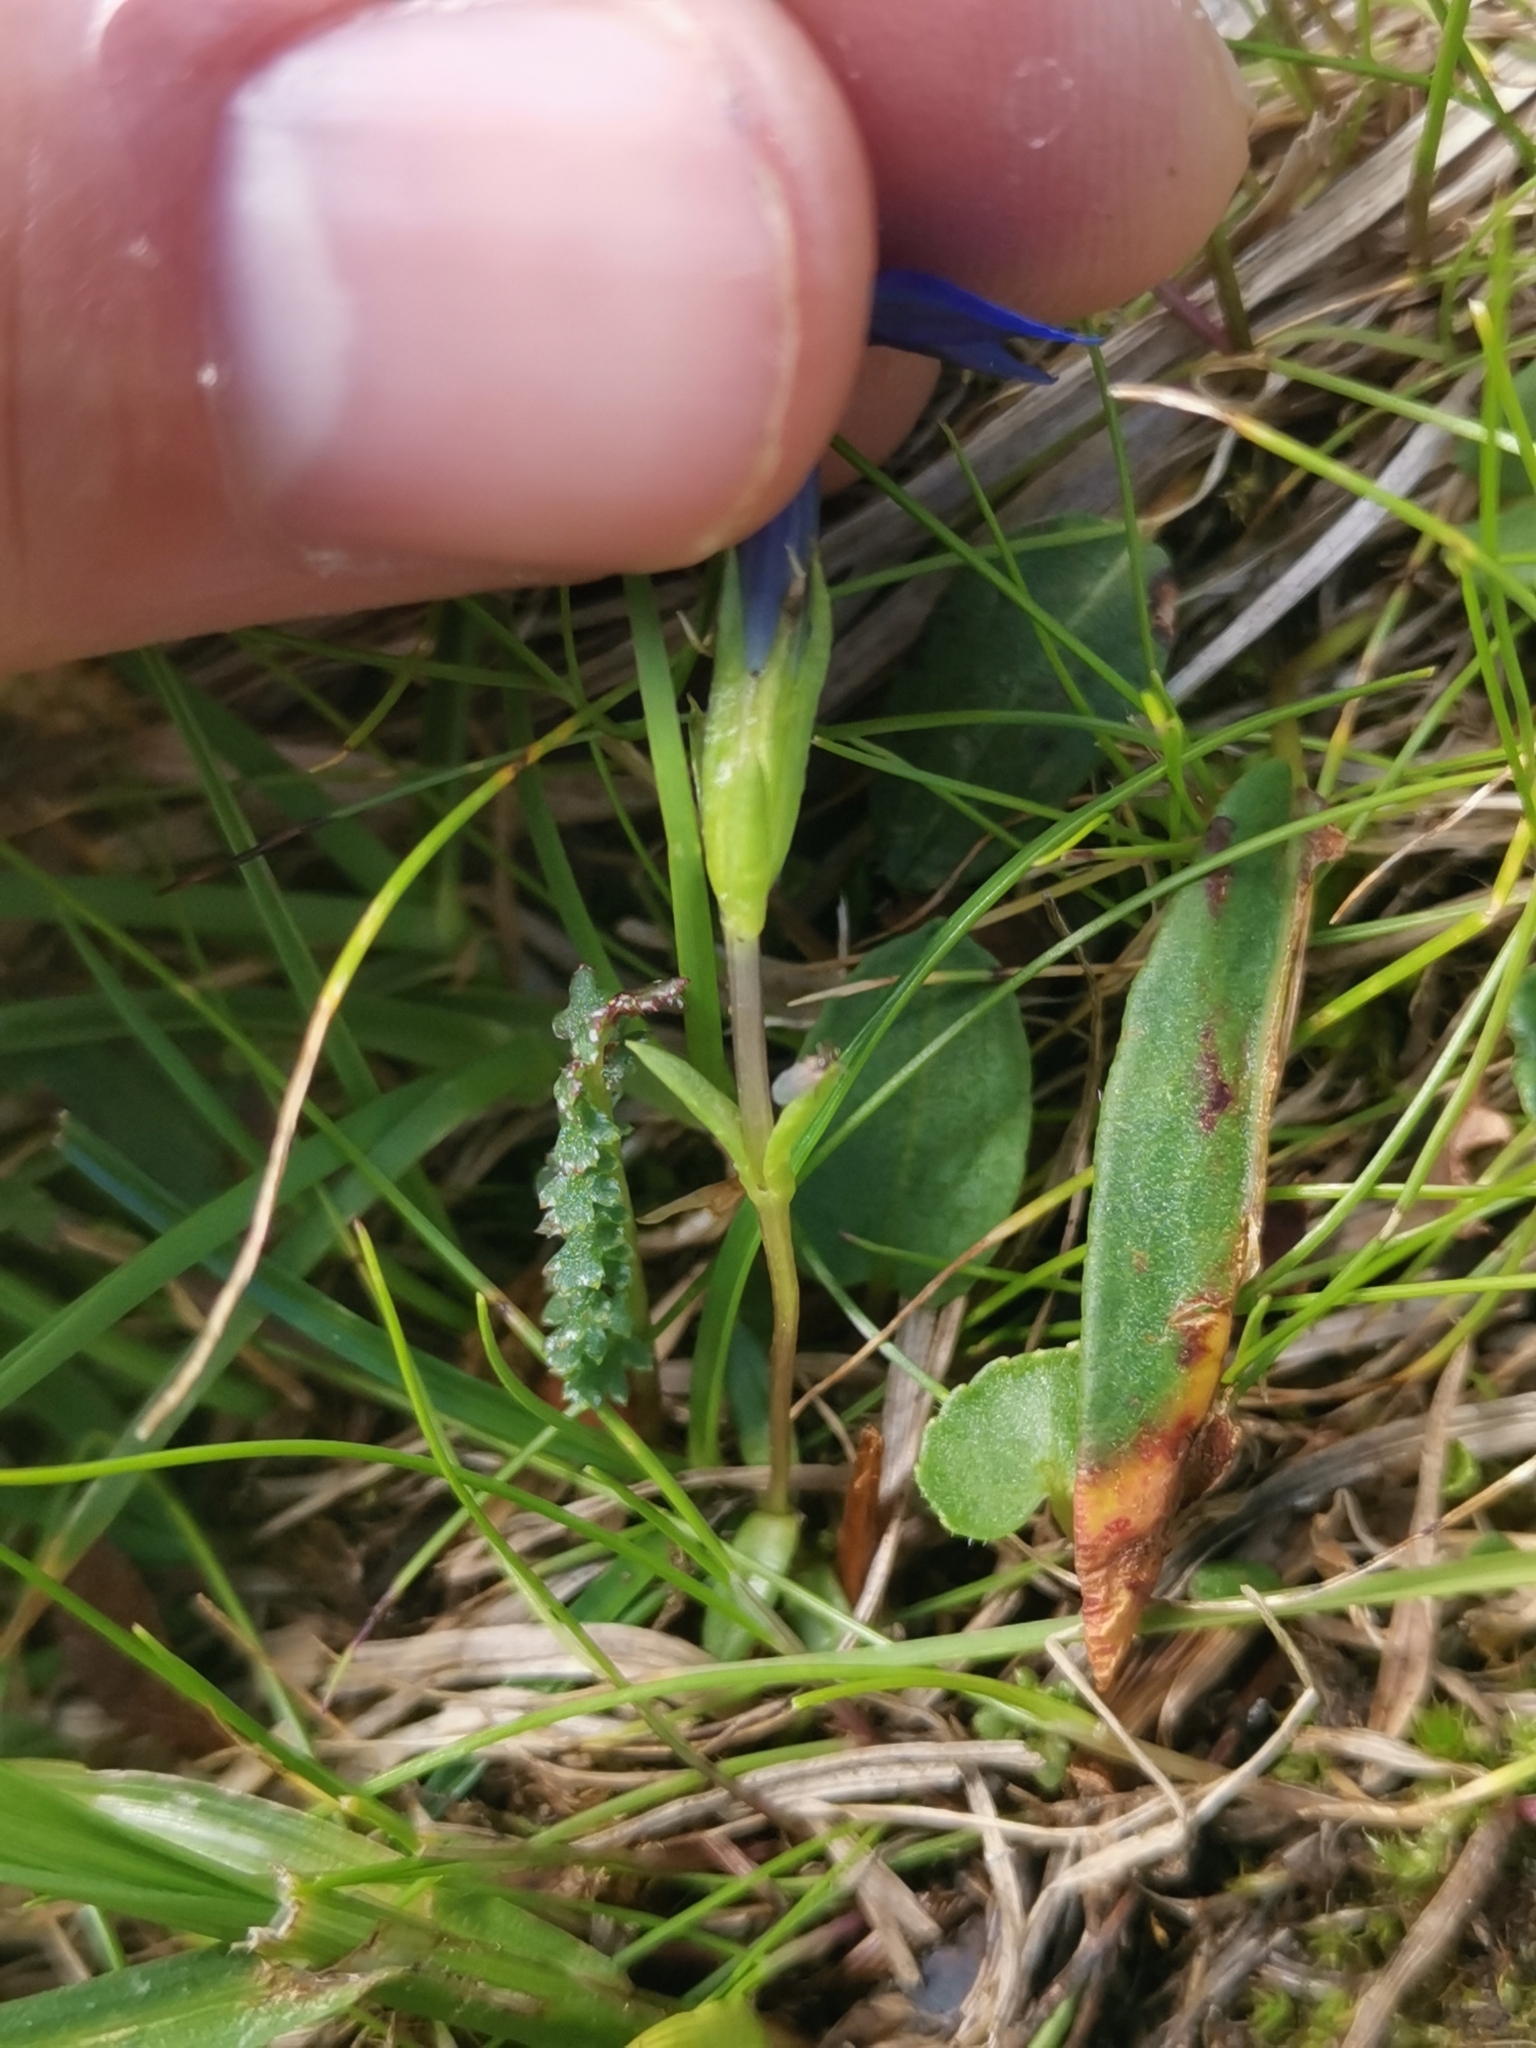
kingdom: Plantae
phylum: Tracheophyta
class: Magnoliopsida
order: Gentianales
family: Gentianaceae
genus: Gentiana
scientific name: Gentiana pumila
